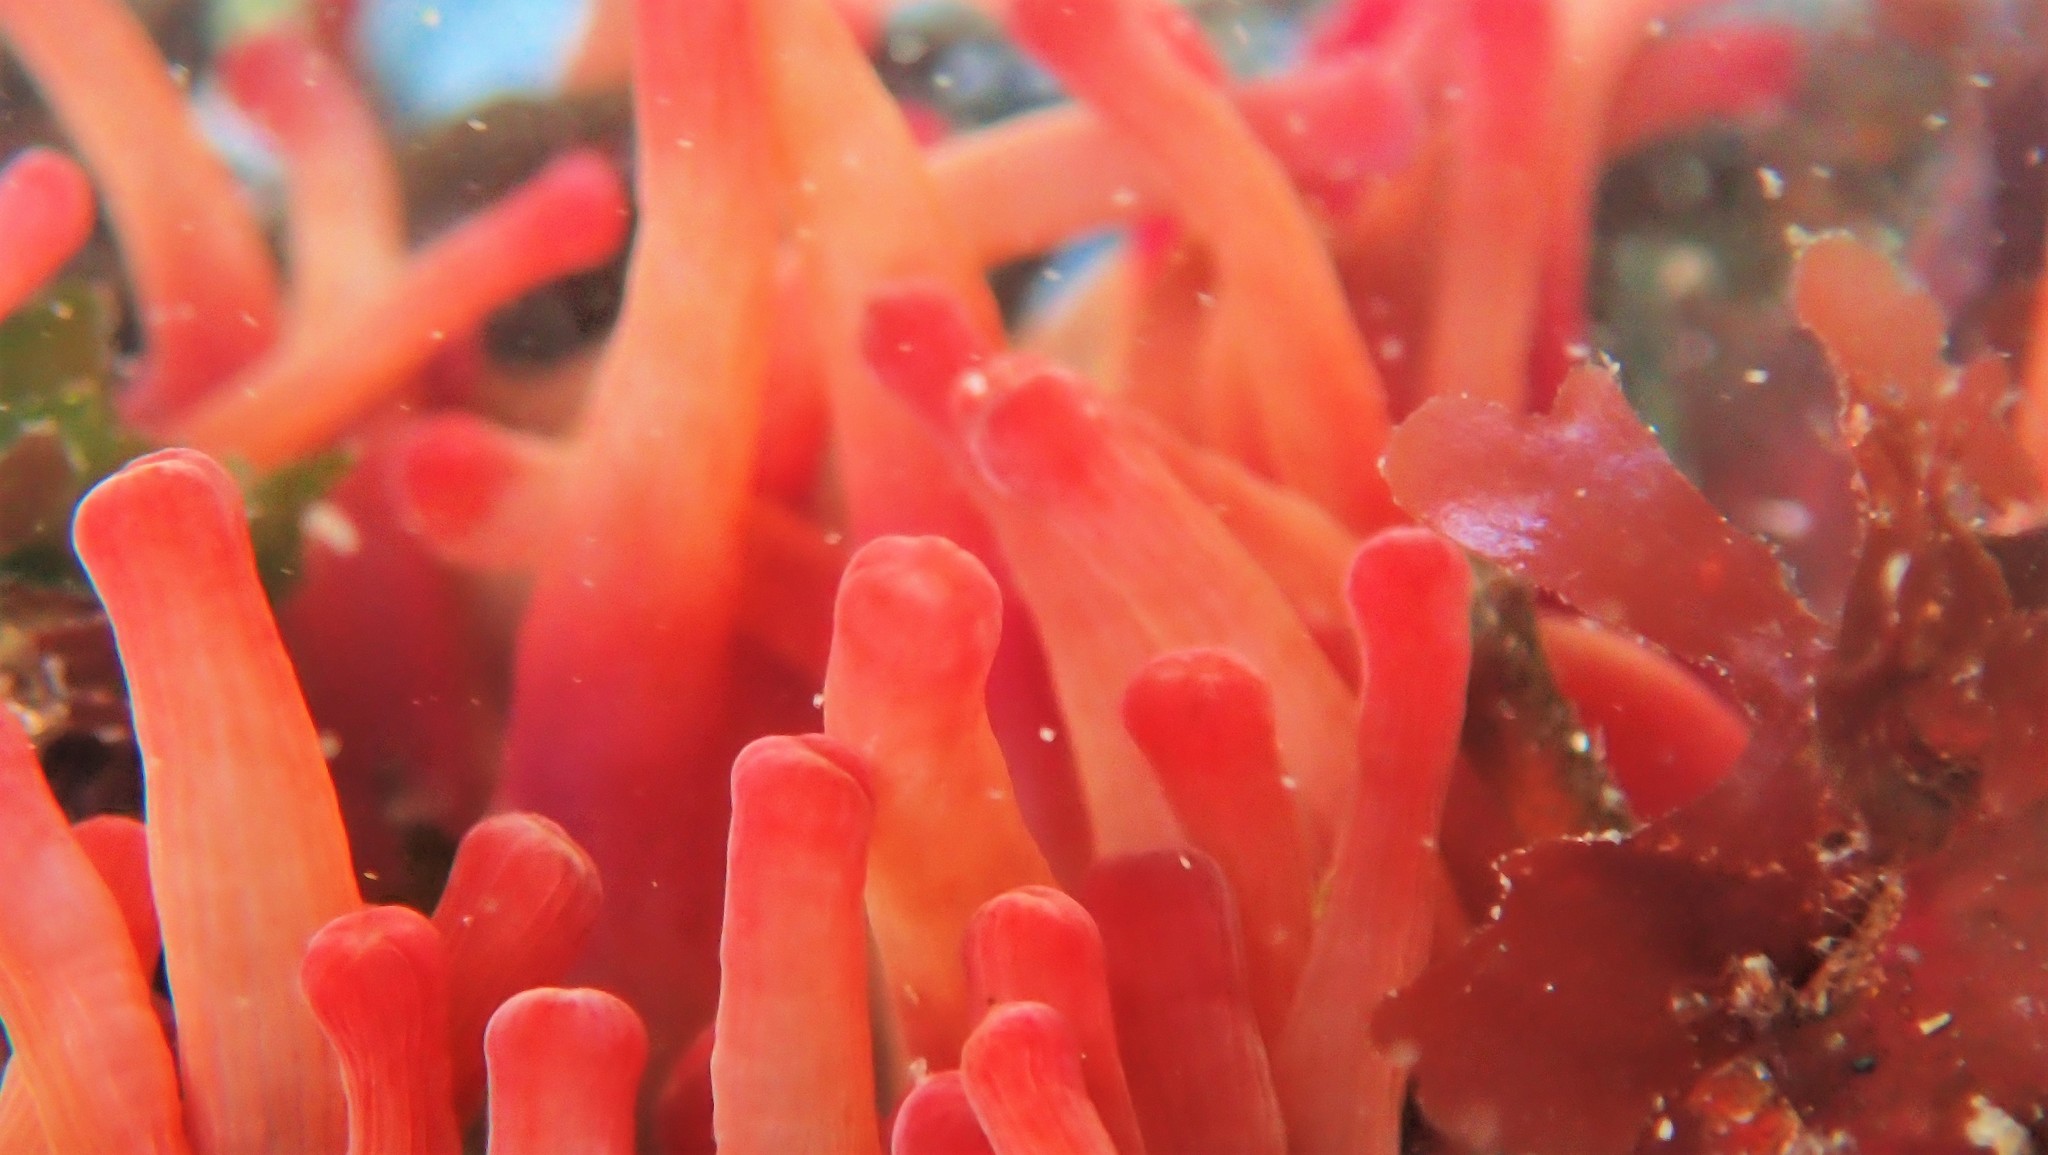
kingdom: Animalia
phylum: Cnidaria
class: Anthozoa
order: Actiniaria
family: Actiniidae
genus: Urticina
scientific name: Urticina grebelnyi
